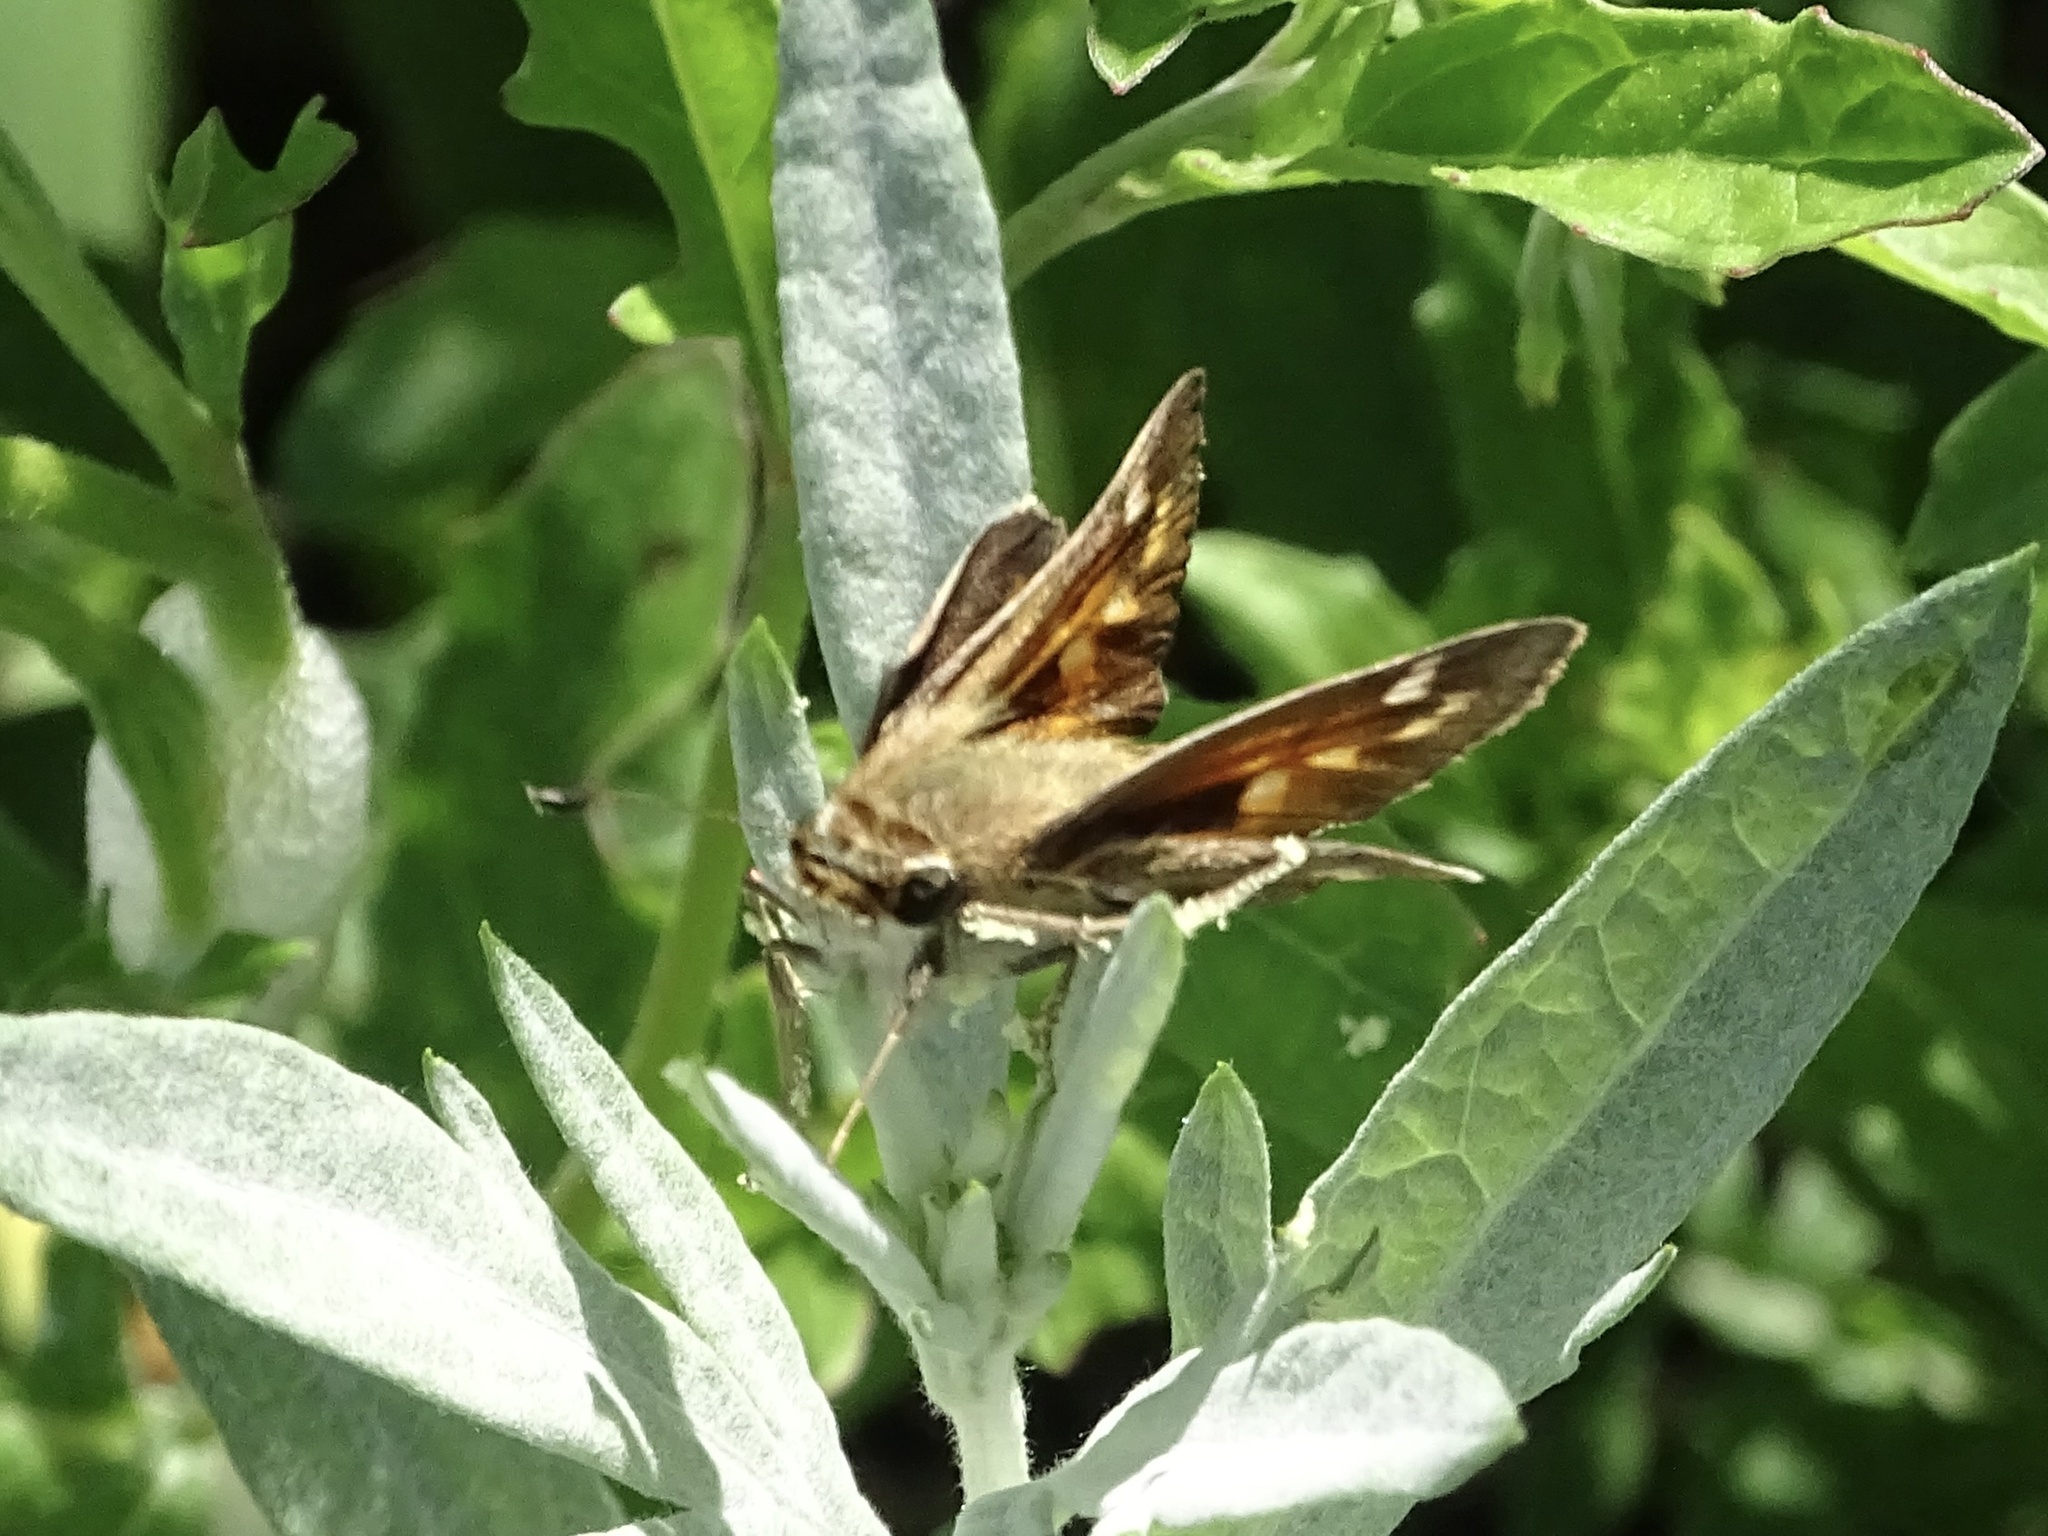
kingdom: Animalia
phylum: Arthropoda
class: Insecta
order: Lepidoptera
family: Hesperiidae
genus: Atalopedes
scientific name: Atalopedes
